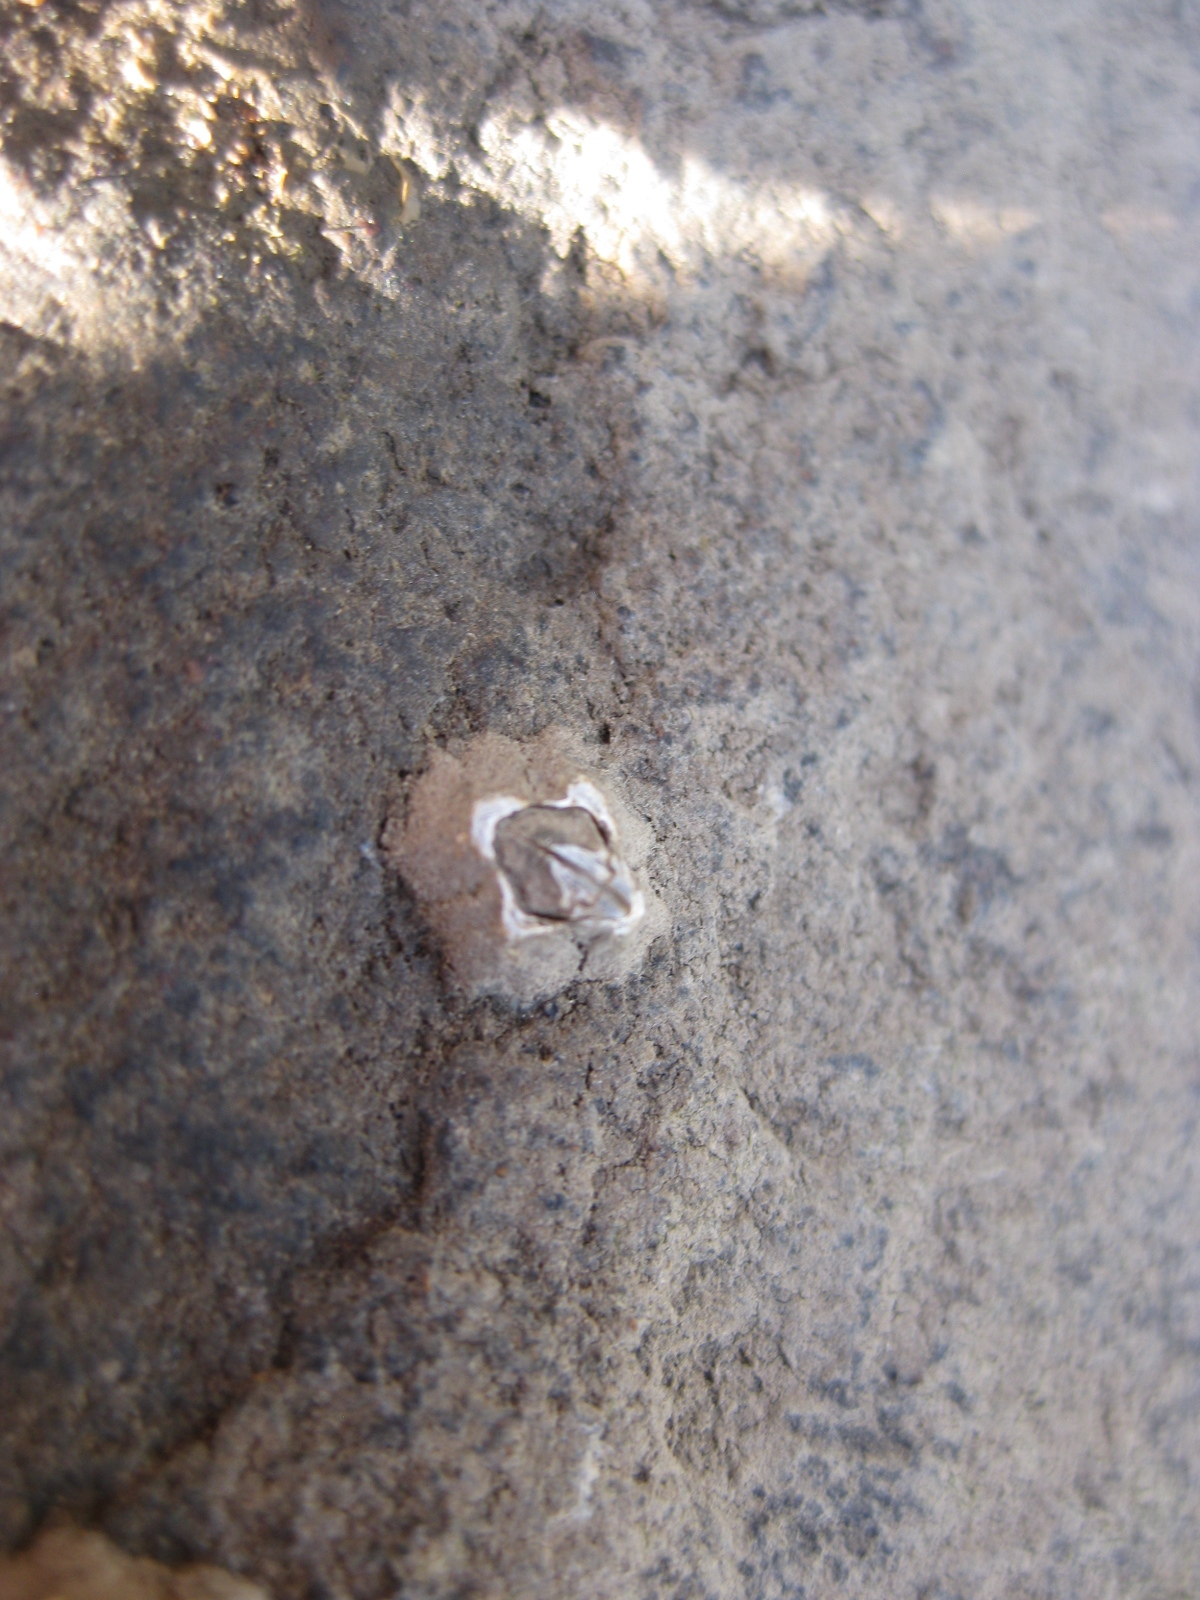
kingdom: Animalia
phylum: Arthropoda
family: Elminiidae
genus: Austrominius
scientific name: Austrominius modestus
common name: Australasian barnacle
